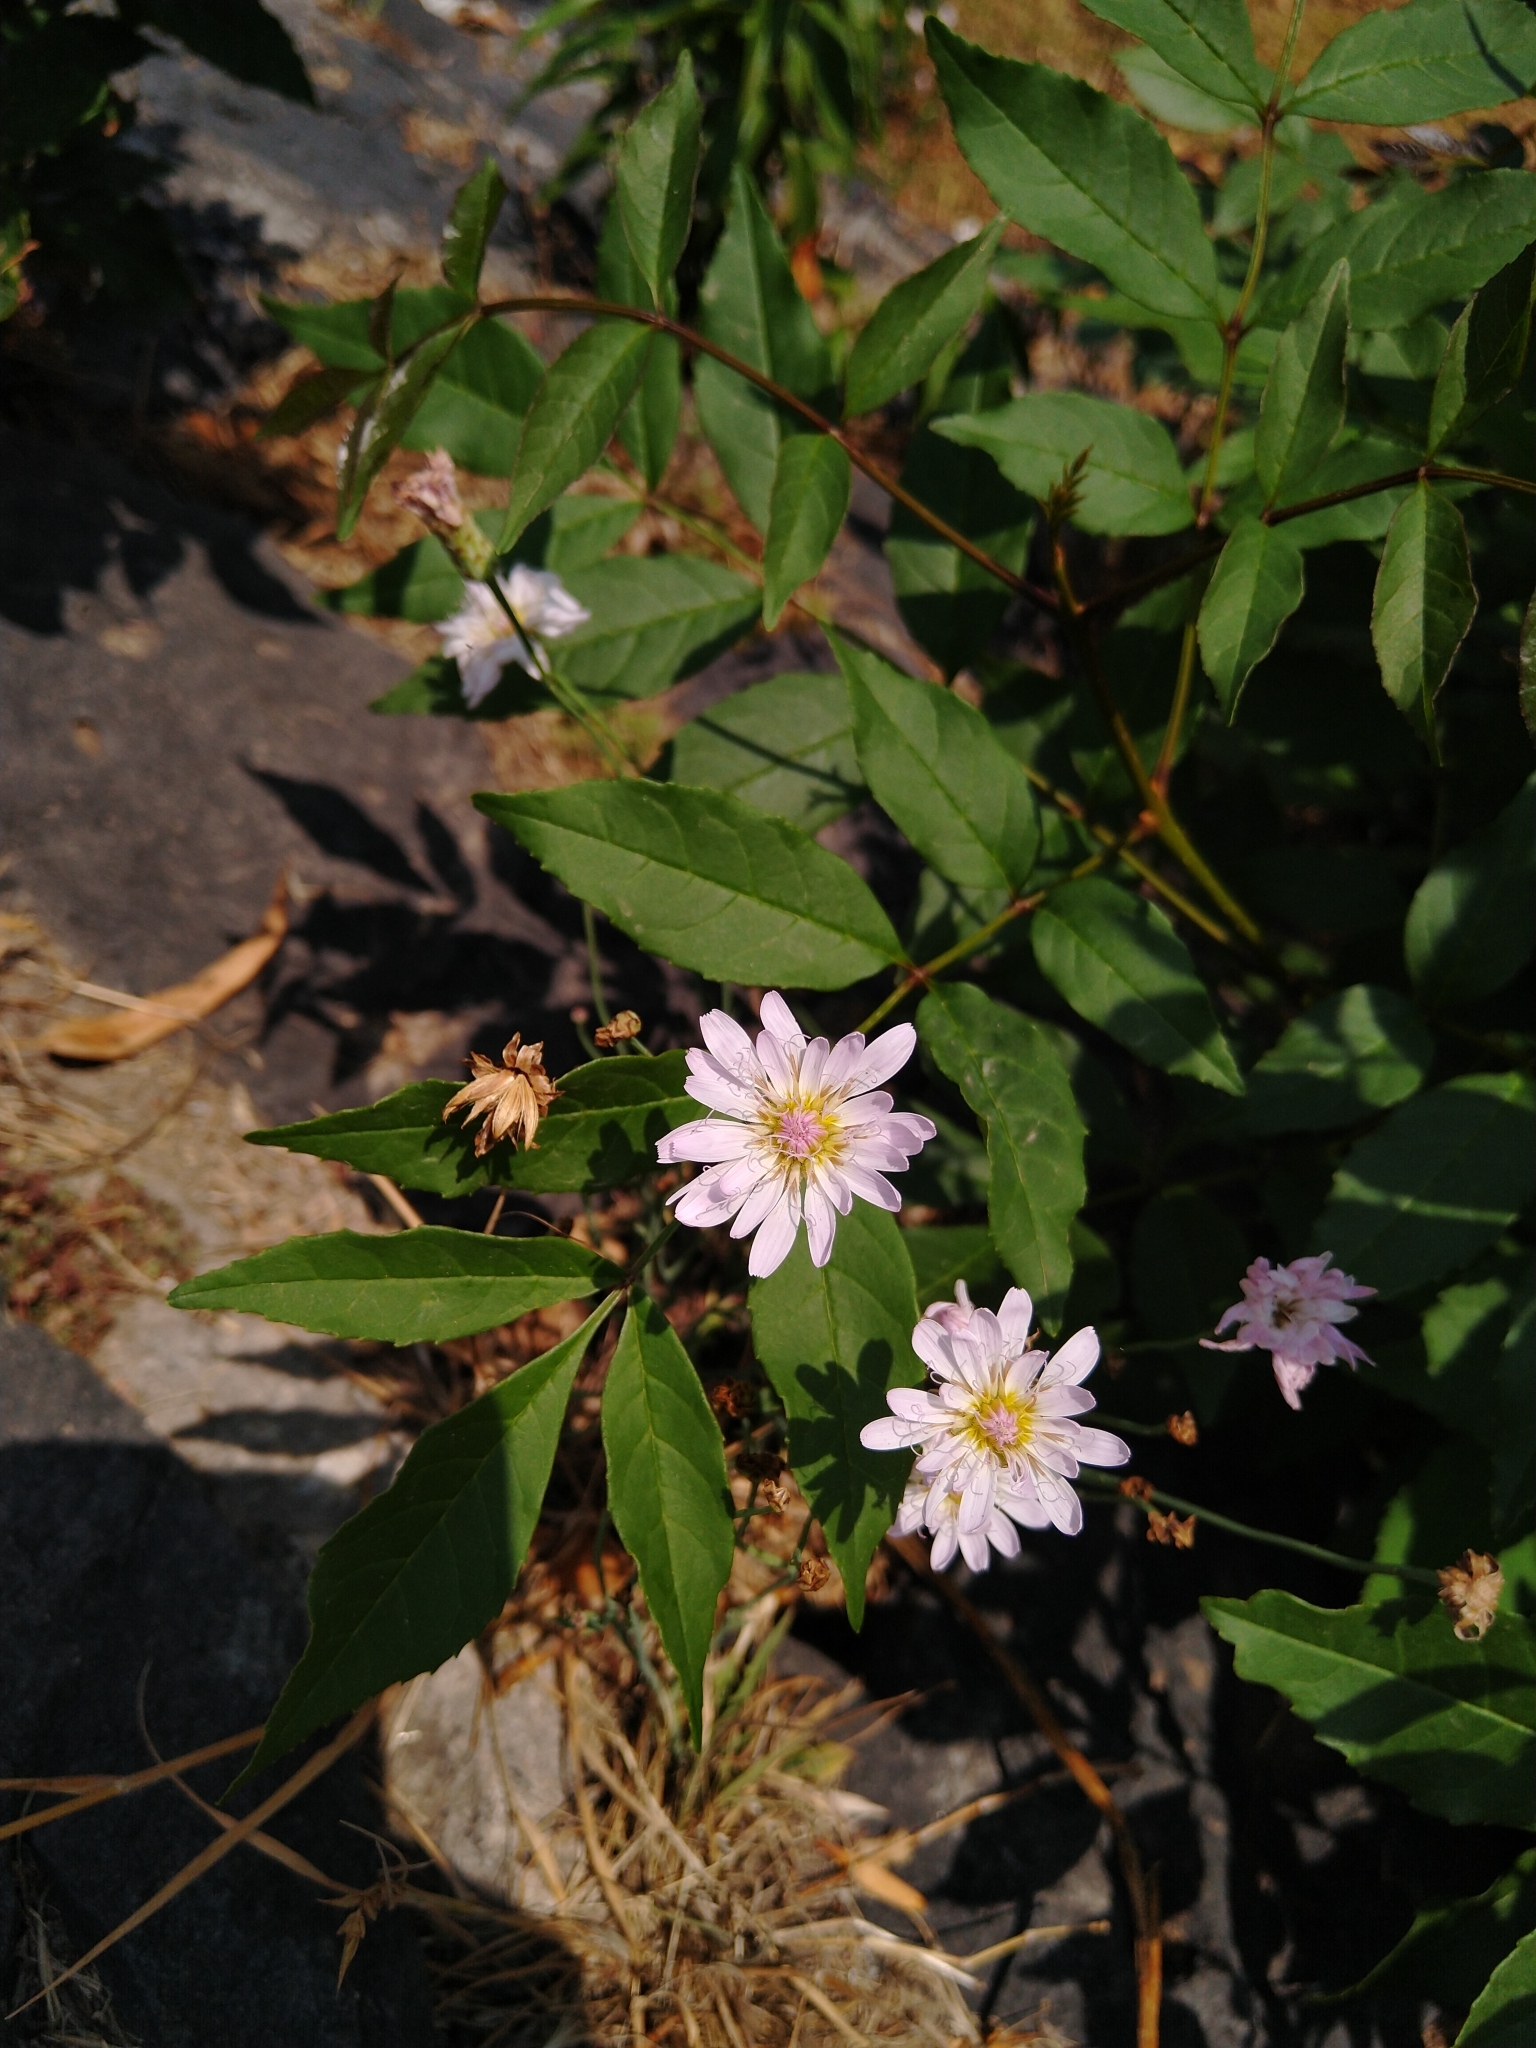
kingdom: Plantae
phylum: Tracheophyta
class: Magnoliopsida
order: Asterales
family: Asteraceae
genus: Pinaropappus
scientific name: Pinaropappus roseus
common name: Rock-lettuce
